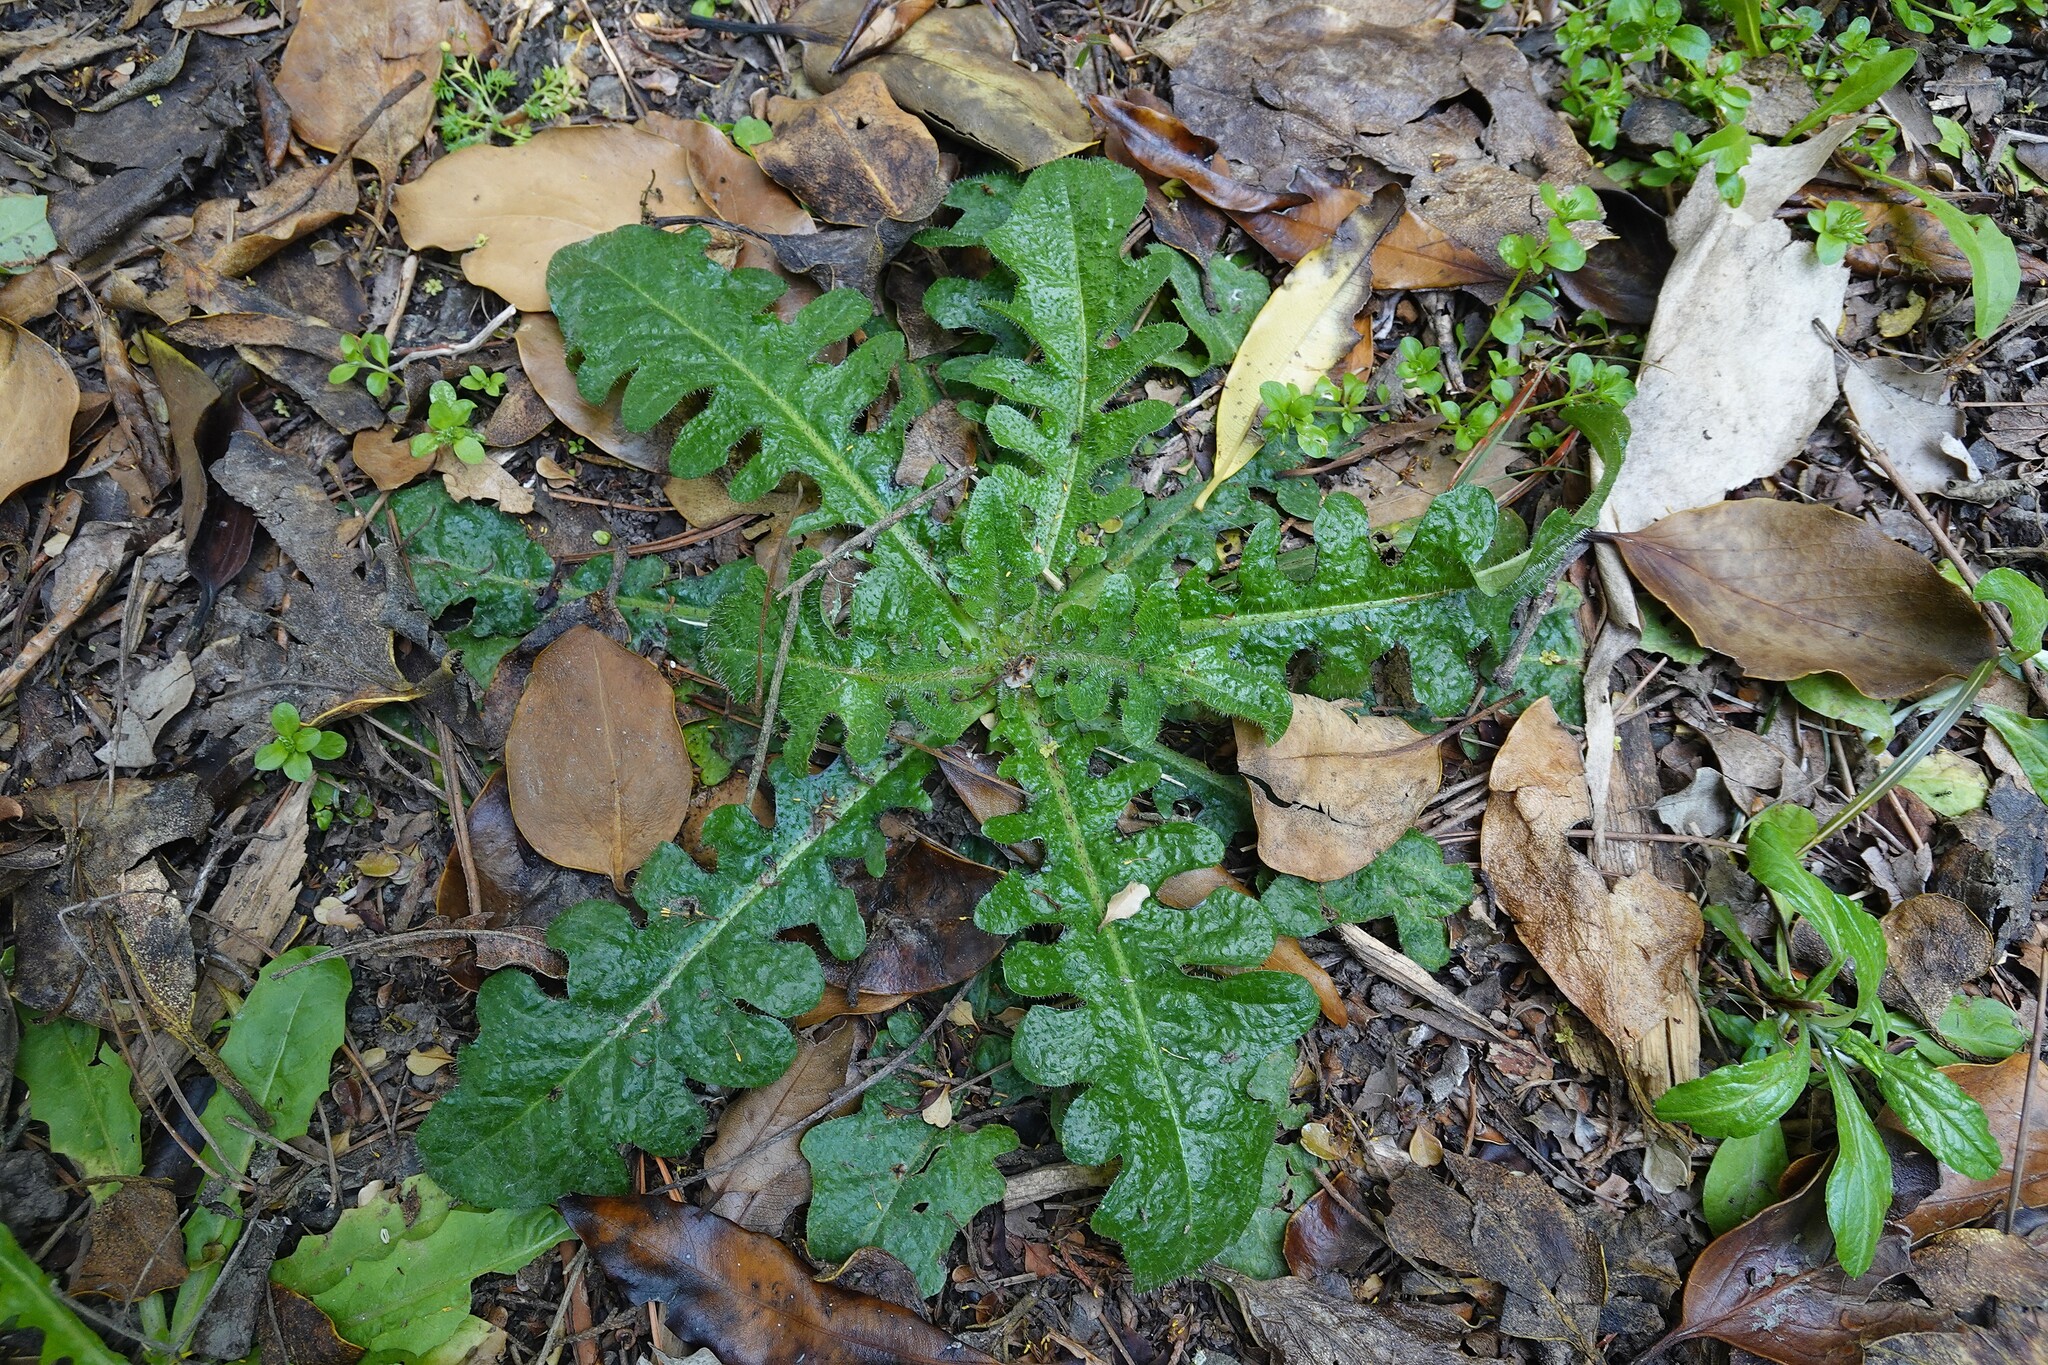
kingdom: Plantae
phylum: Tracheophyta
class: Magnoliopsida
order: Asterales
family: Asteraceae
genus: Hypochaeris
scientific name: Hypochaeris radicata
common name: Flatweed
